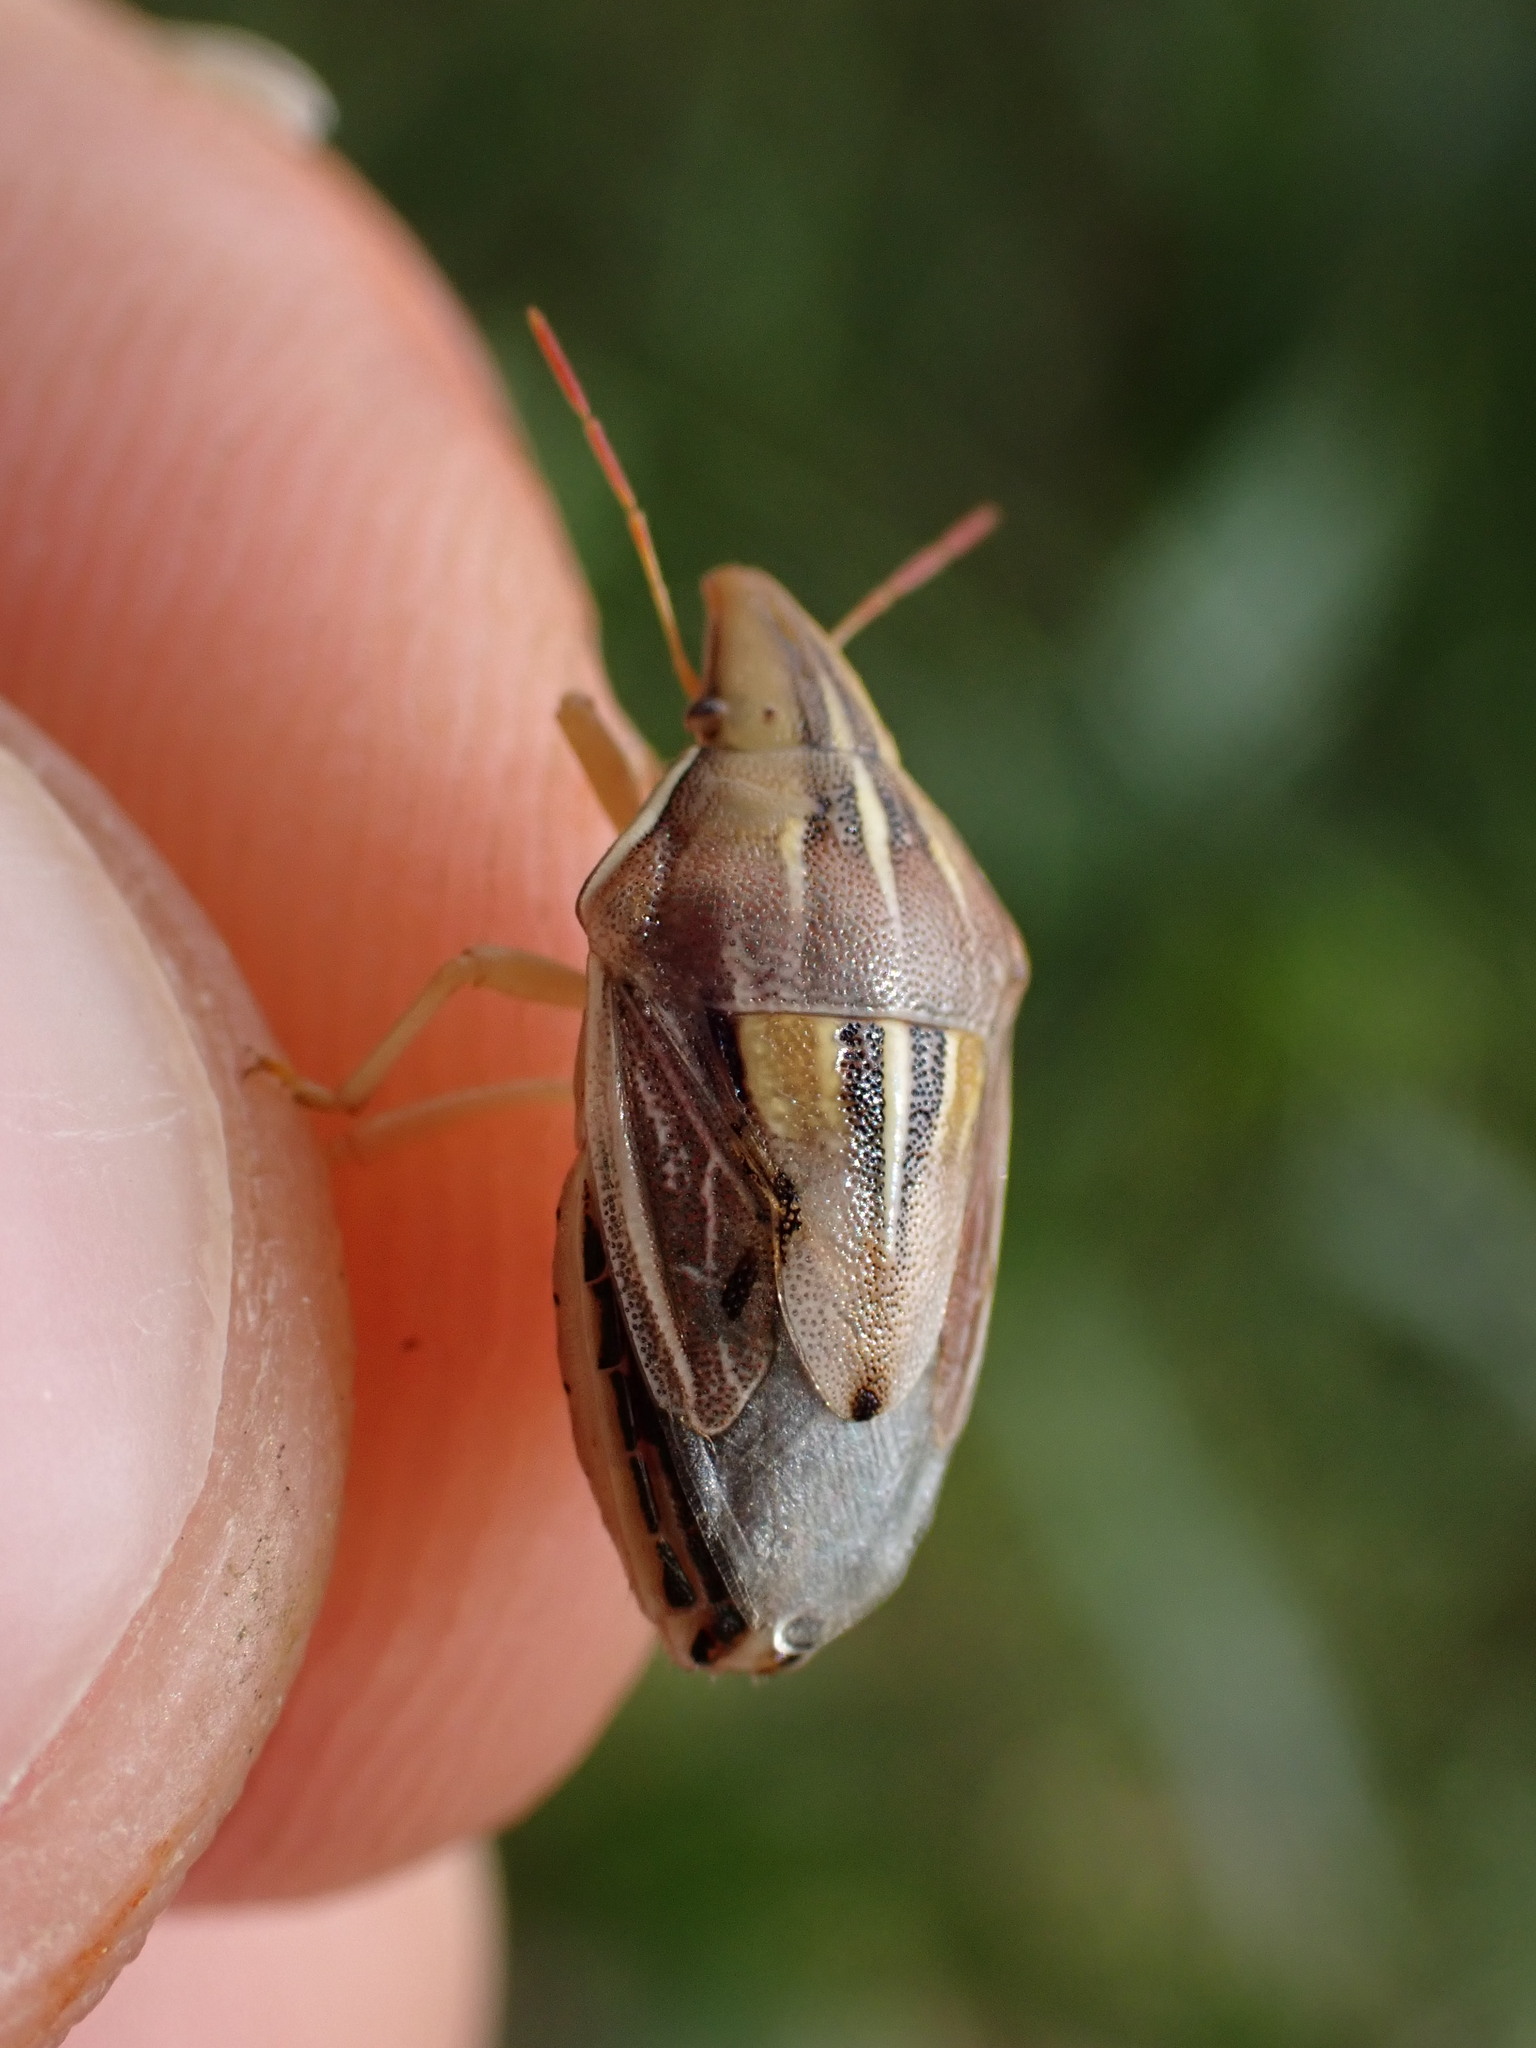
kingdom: Animalia
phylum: Arthropoda
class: Insecta
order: Hemiptera
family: Pentatomidae
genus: Aelia
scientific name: Aelia rostrata
